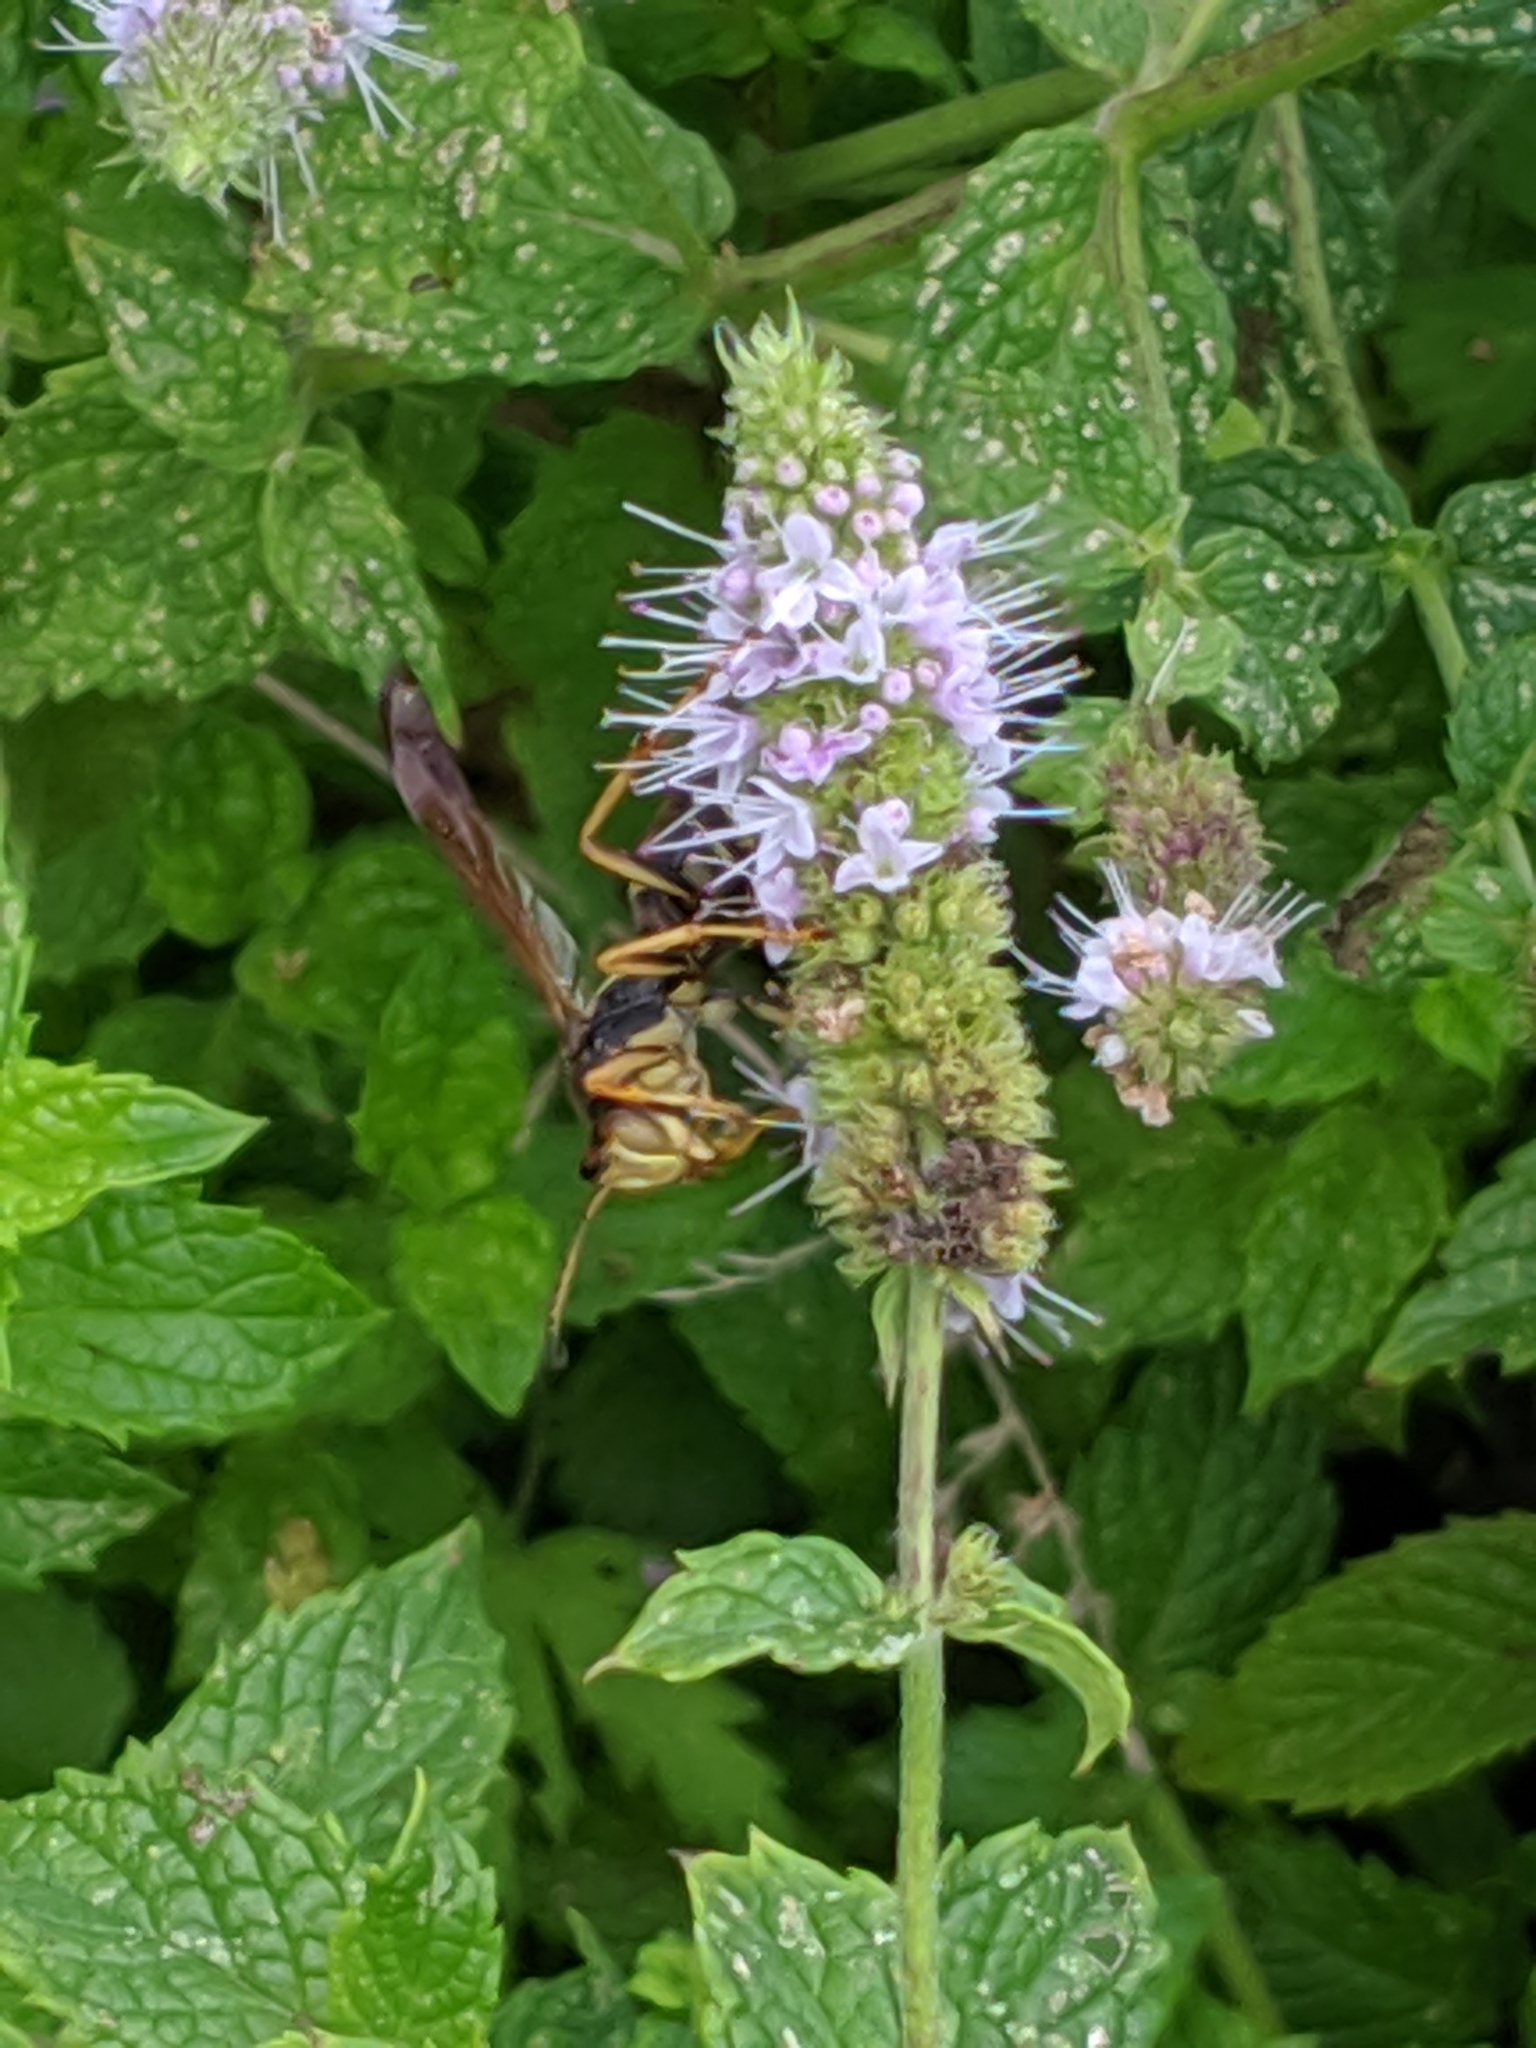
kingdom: Animalia
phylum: Arthropoda
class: Insecta
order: Hymenoptera
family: Eumenidae
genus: Polistes
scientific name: Polistes fuscatus
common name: Dark paper wasp
